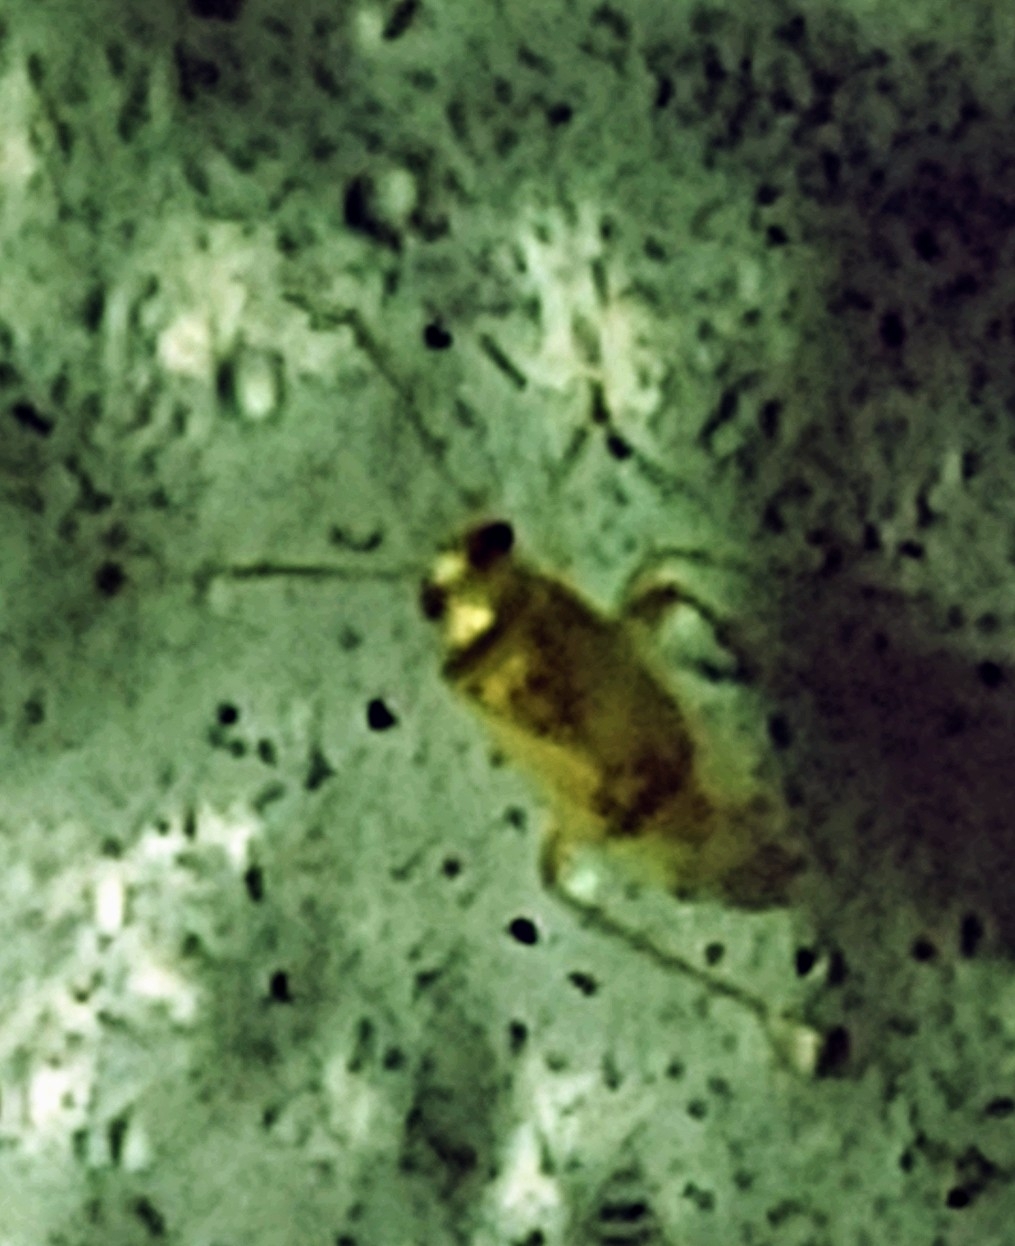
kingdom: Animalia
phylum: Arthropoda
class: Insecta
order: Hemiptera
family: Miridae
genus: Dagbertus
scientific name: Dagbertus
